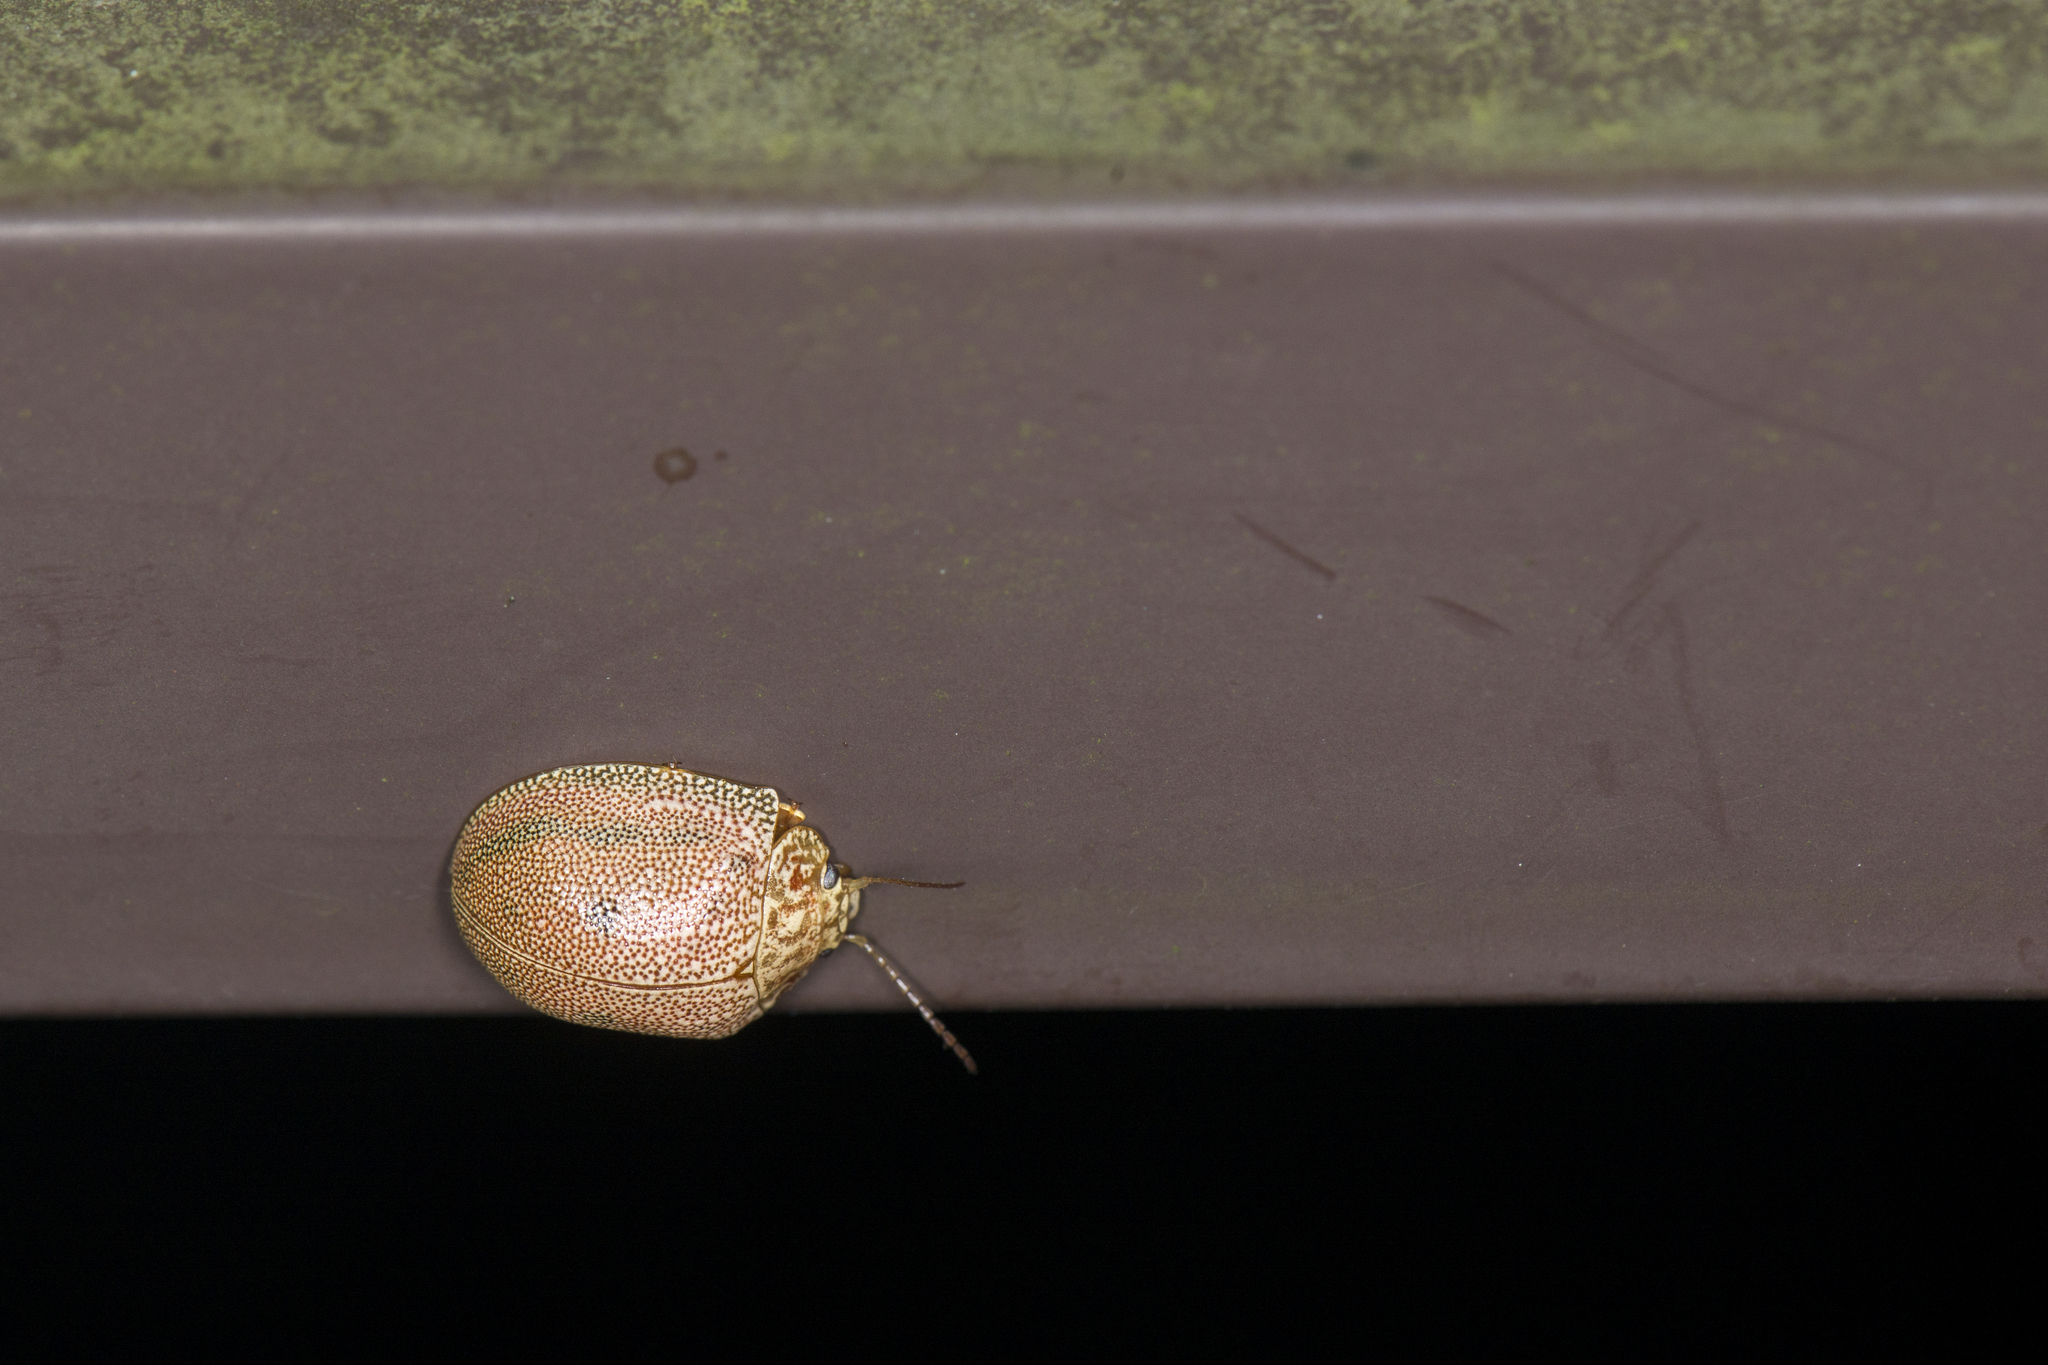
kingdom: Animalia
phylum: Arthropoda
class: Insecta
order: Coleoptera
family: Chrysomelidae
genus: Paropsis
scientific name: Paropsis
